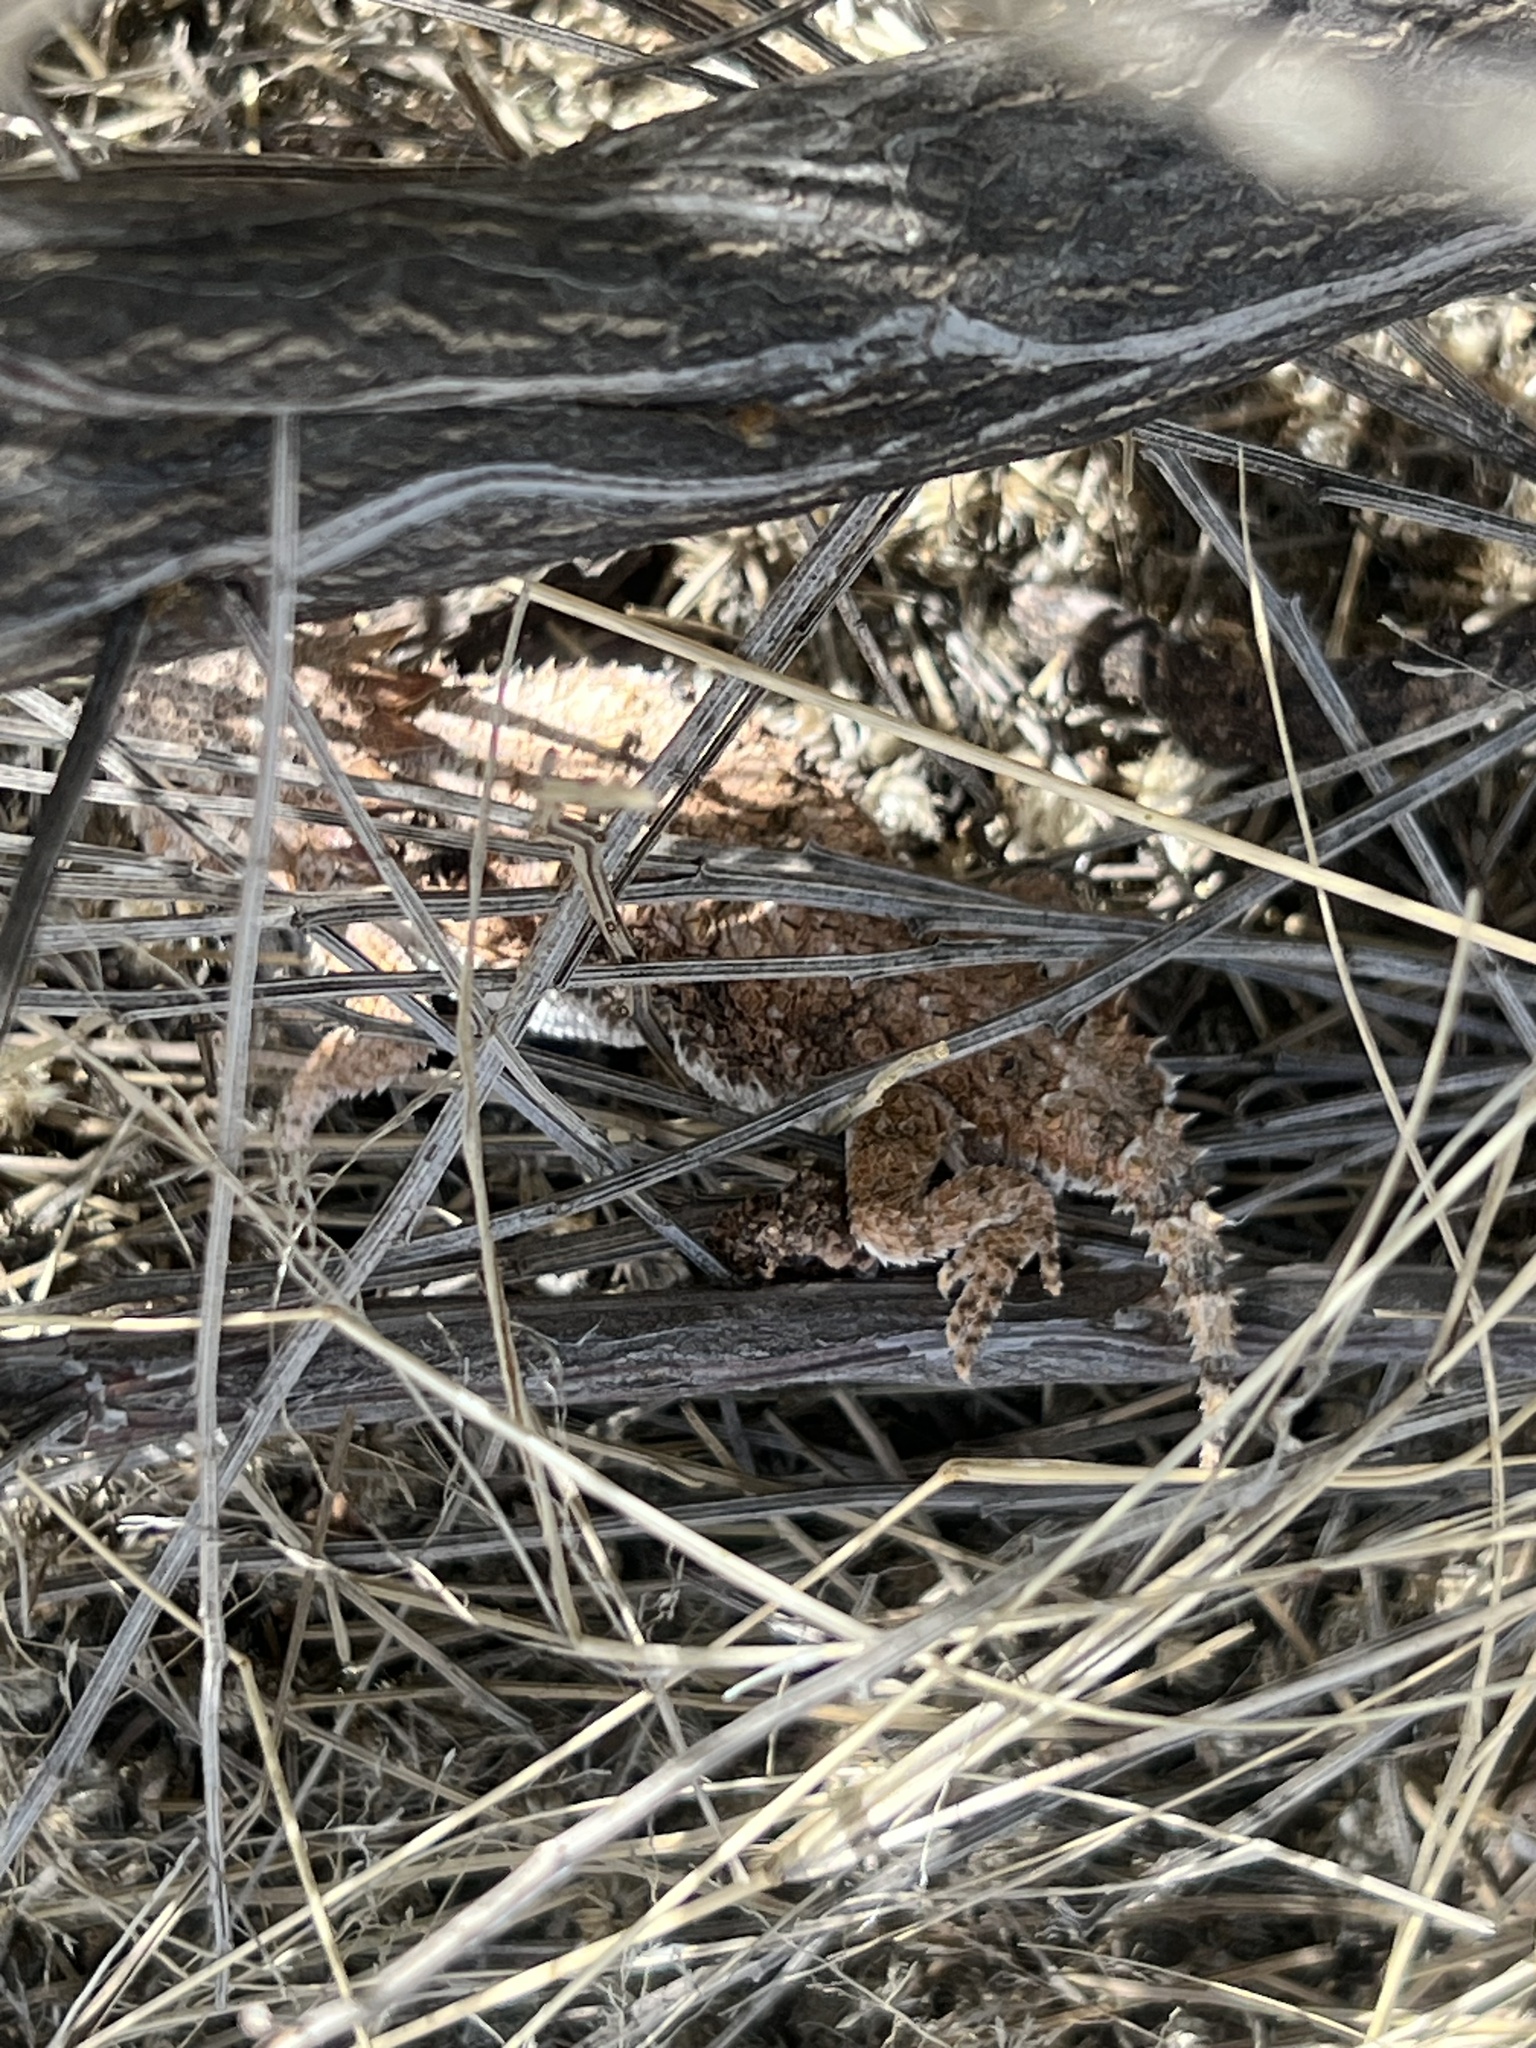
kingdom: Animalia
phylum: Chordata
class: Squamata
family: Phrynosomatidae
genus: Phrynosoma
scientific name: Phrynosoma solare
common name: Regal horned lizard
